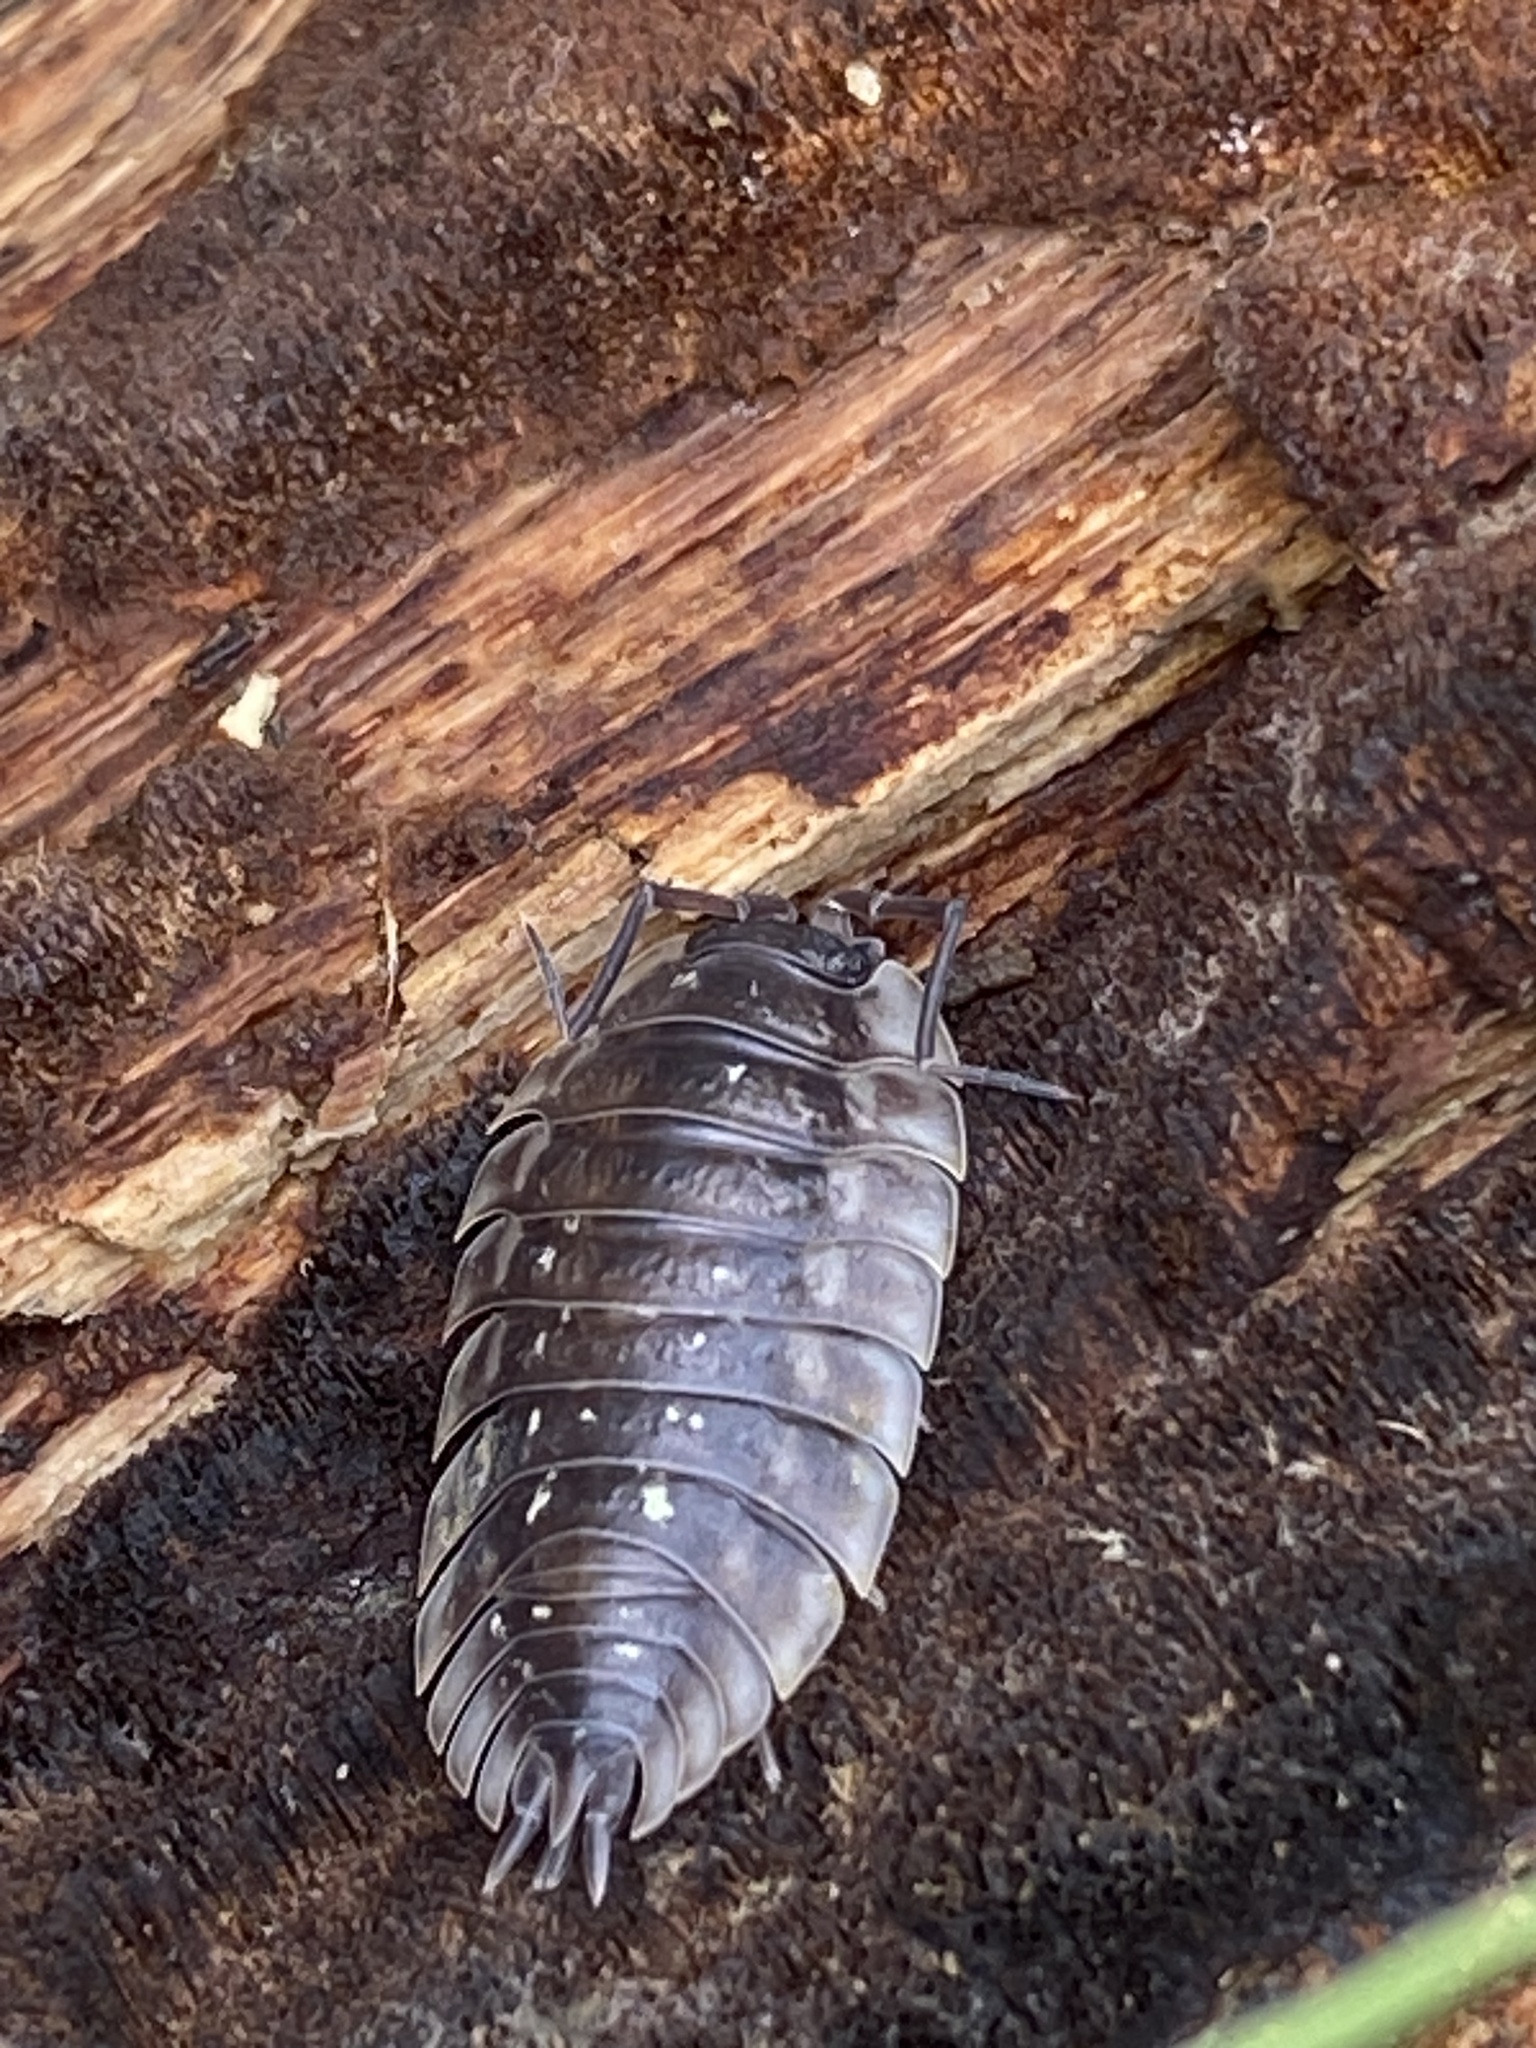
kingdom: Animalia
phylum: Arthropoda
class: Malacostraca
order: Isopoda
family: Oniscidae
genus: Oniscus
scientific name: Oniscus asellus
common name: Common shiny woodlouse
